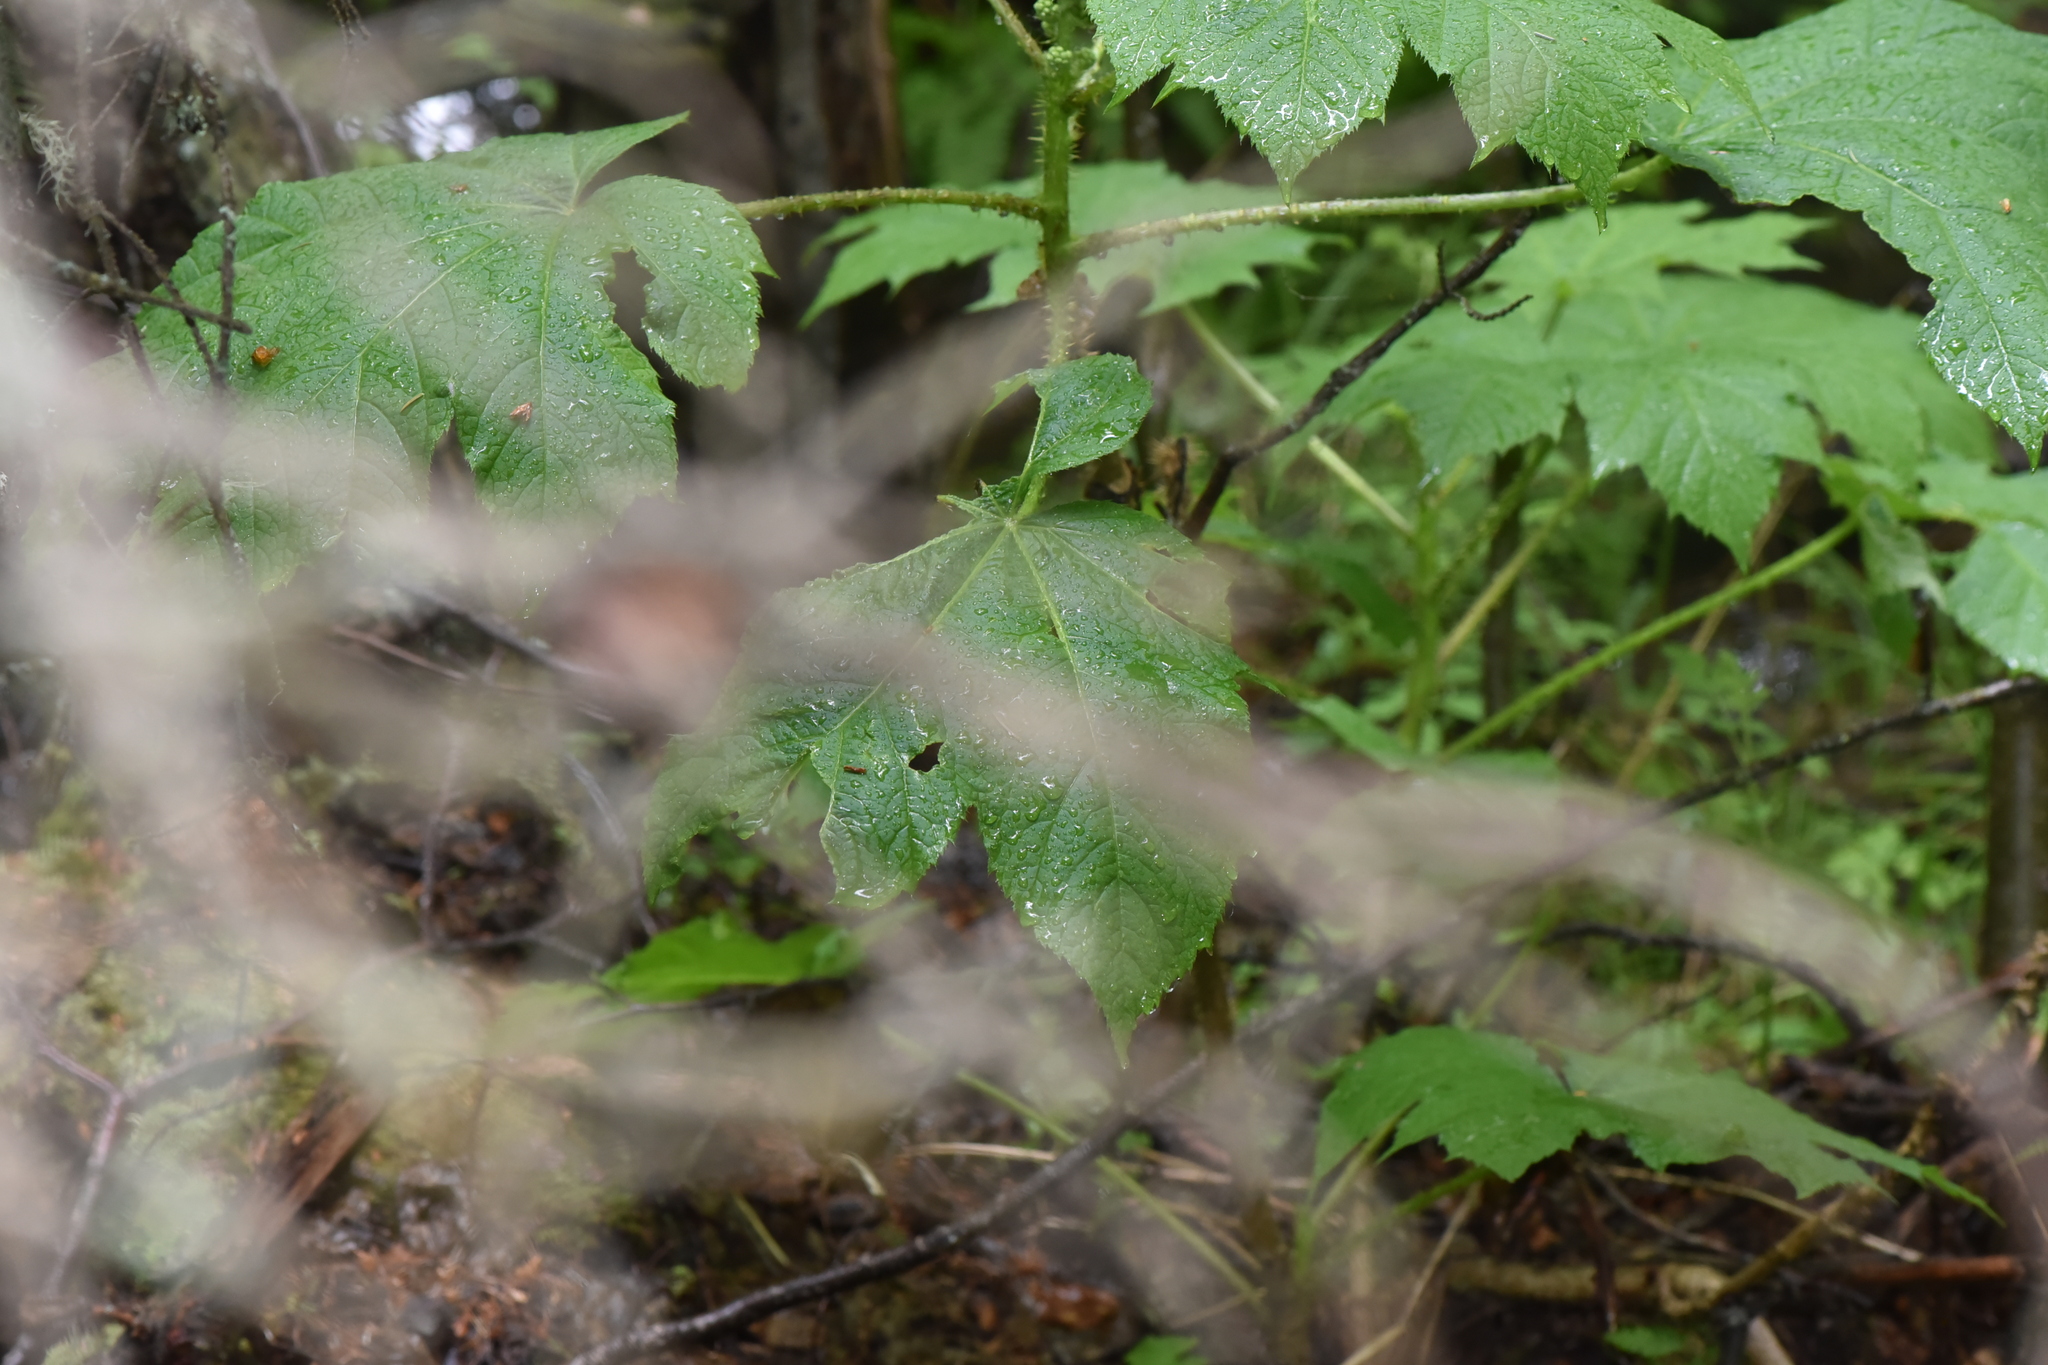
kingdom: Plantae
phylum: Tracheophyta
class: Magnoliopsida
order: Apiales
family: Araliaceae
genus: Oplopanax
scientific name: Oplopanax horridus
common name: Devil's walking-stick
